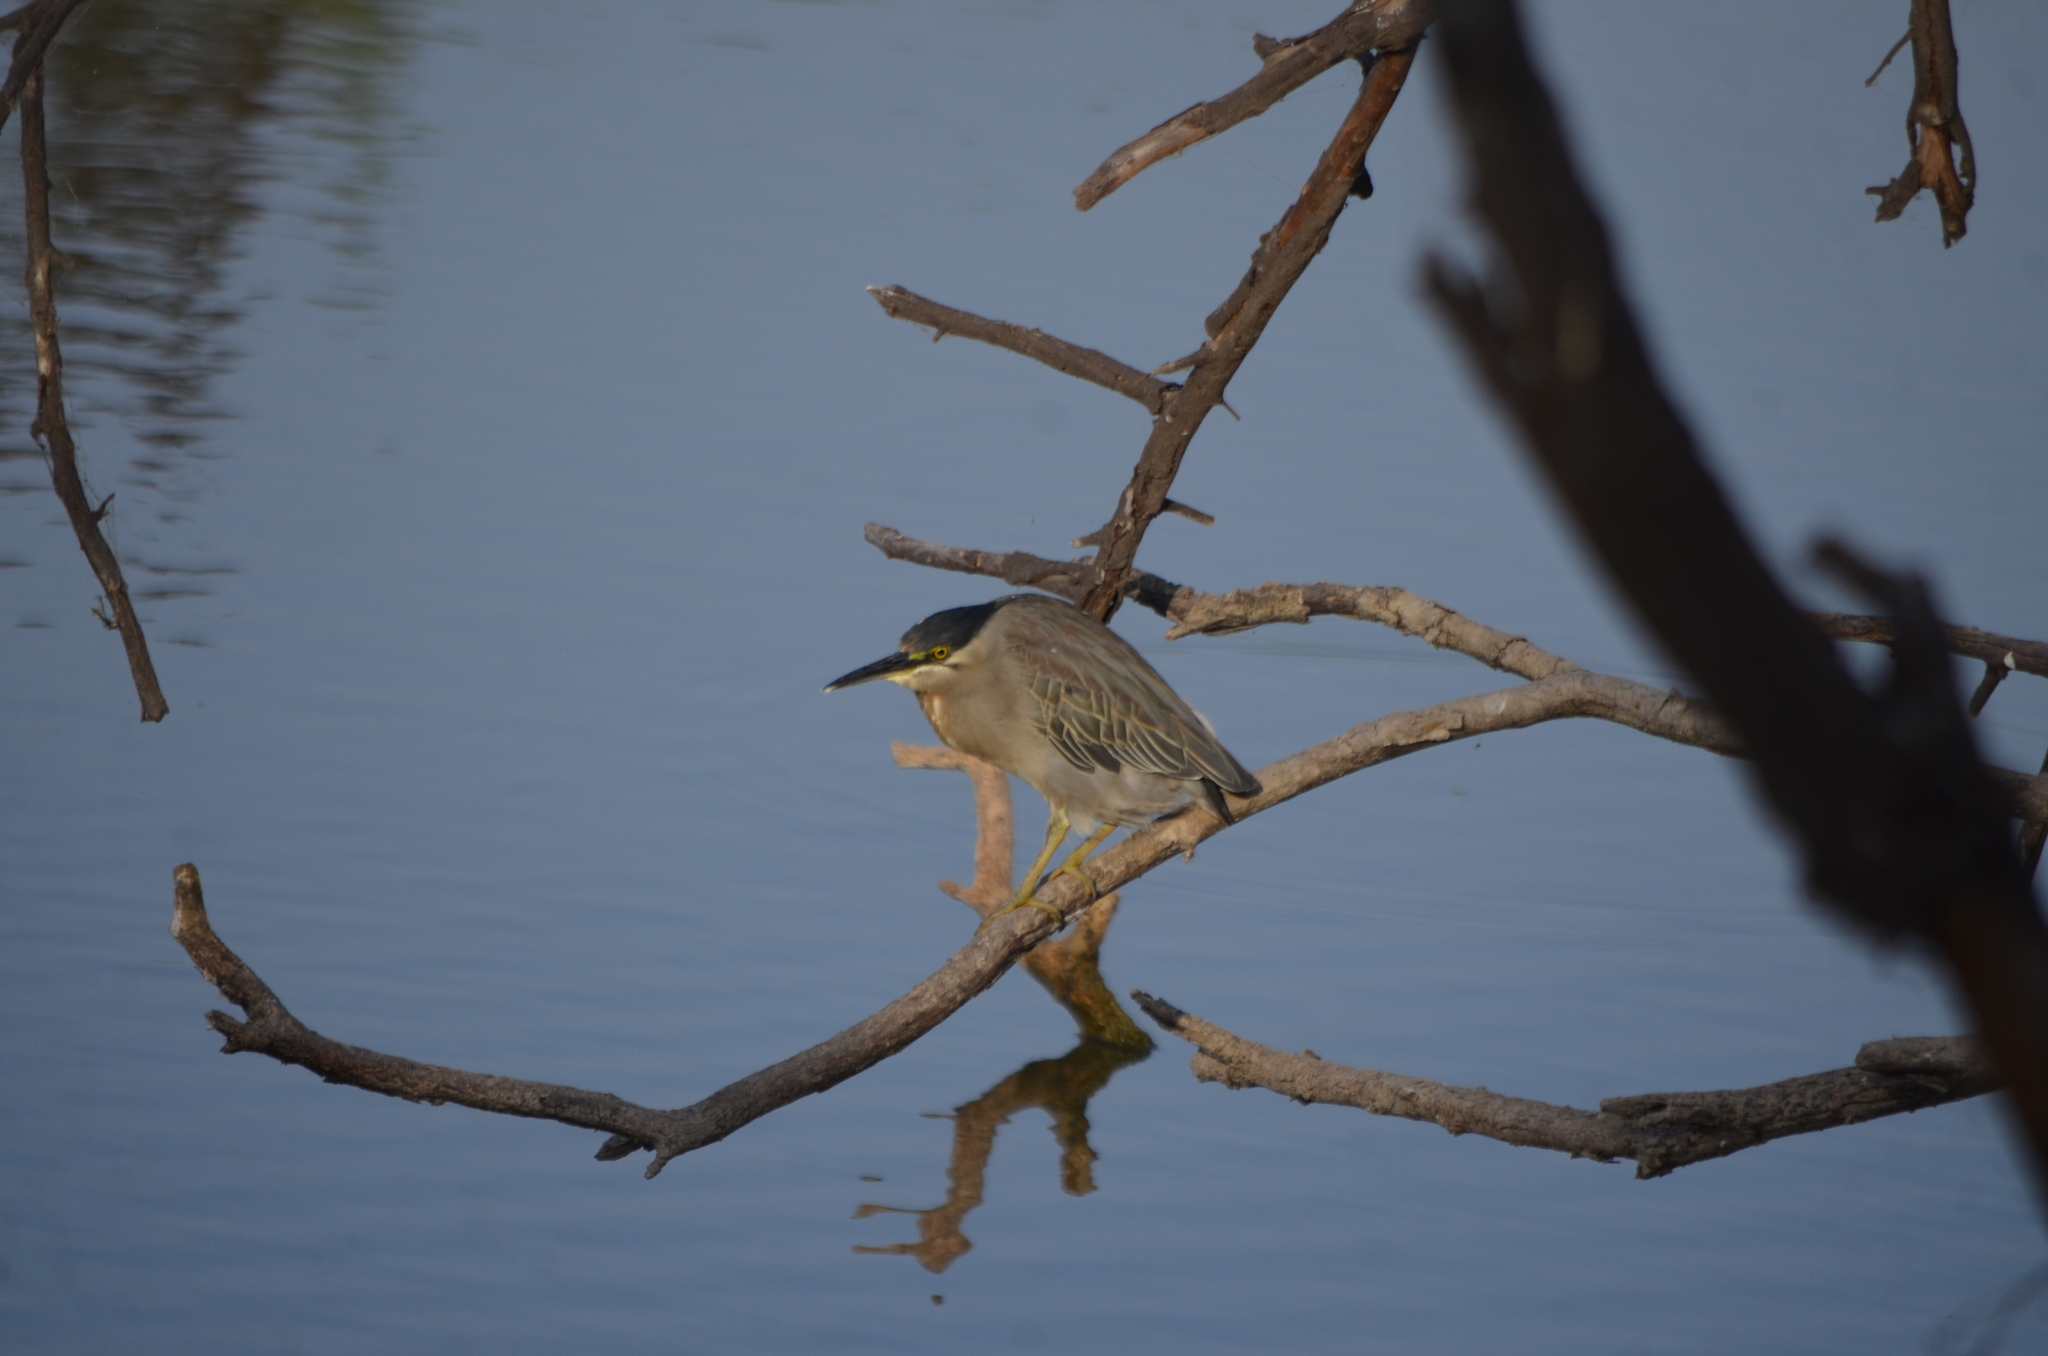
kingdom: Animalia
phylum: Chordata
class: Aves
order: Pelecaniformes
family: Ardeidae
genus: Butorides
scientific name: Butorides striata
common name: Striated heron
